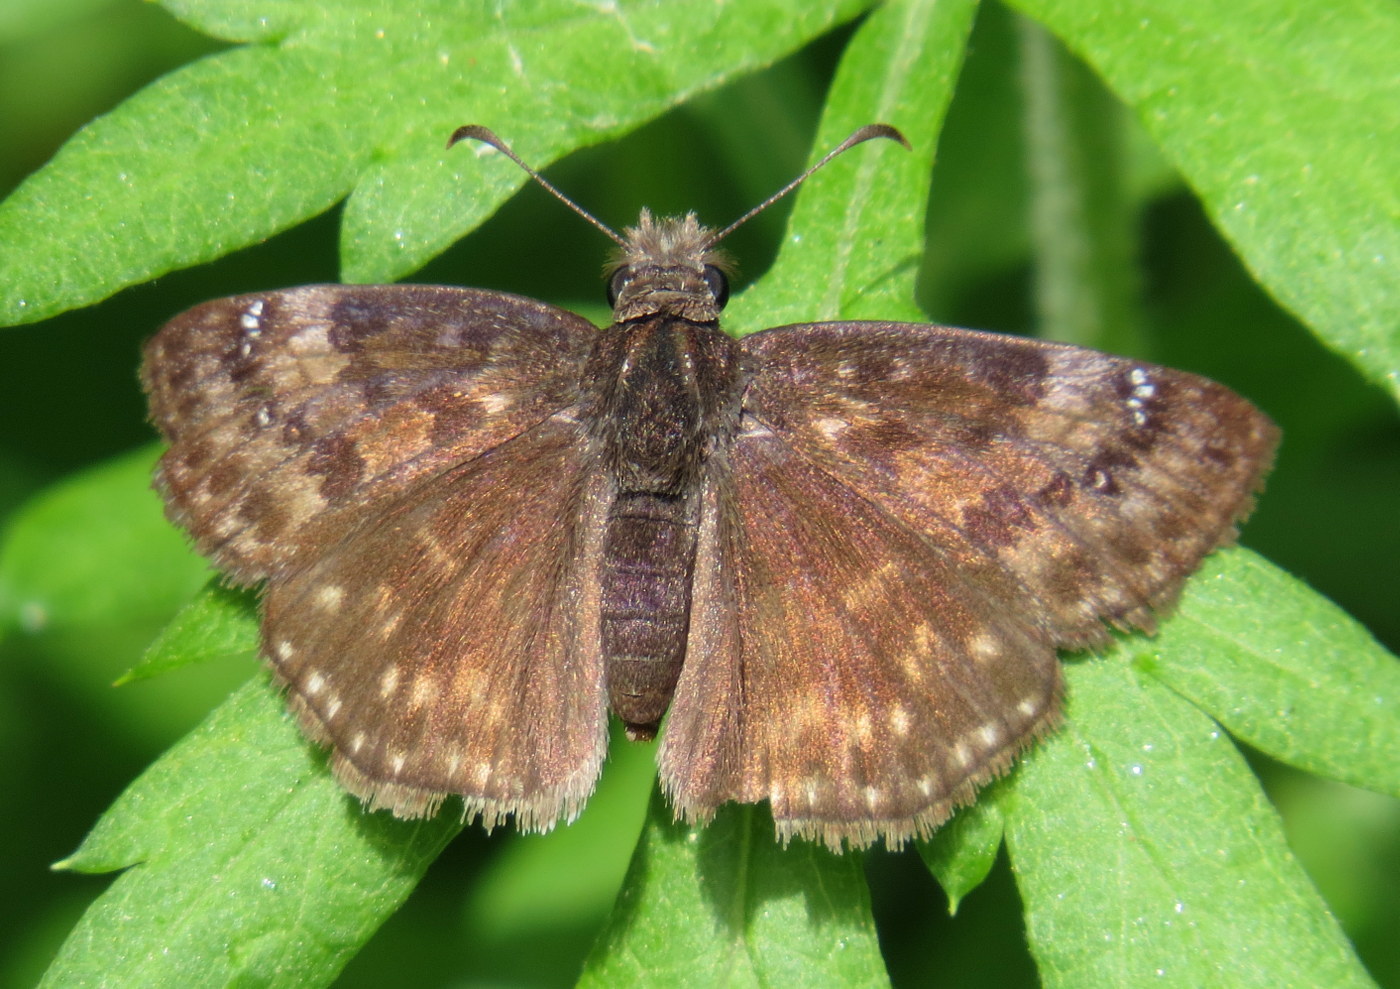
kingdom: Animalia
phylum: Arthropoda
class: Insecta
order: Lepidoptera
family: Hesperiidae
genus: Erynnis
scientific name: Erynnis baptisiae
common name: Wild indigo duskywing
